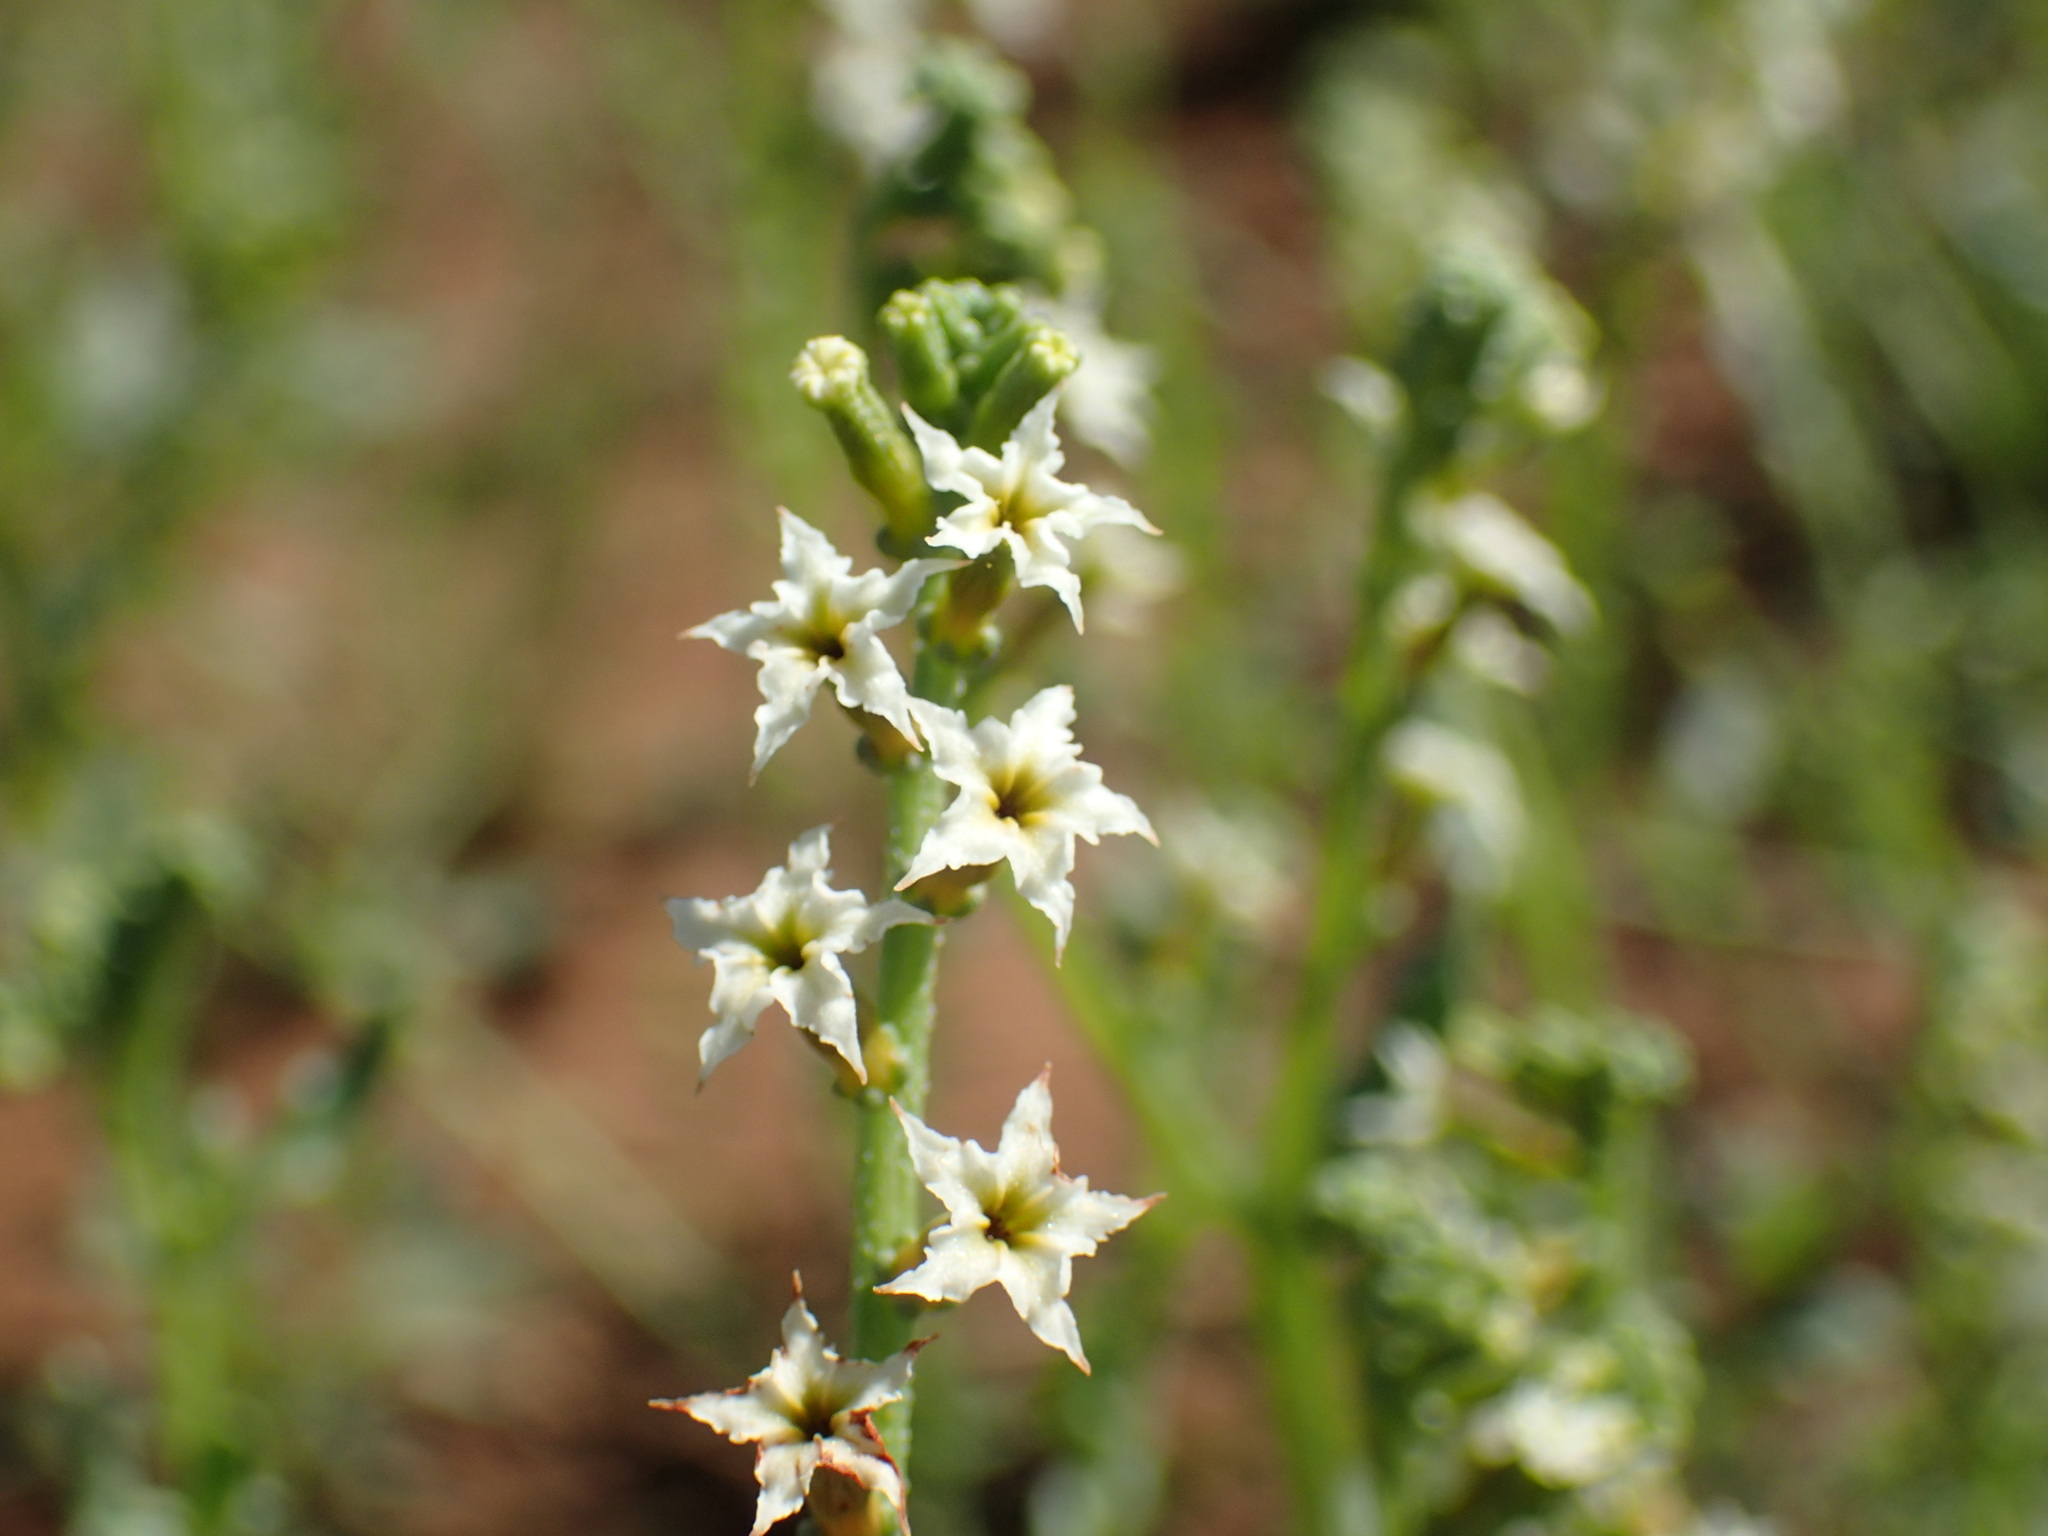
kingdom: Plantae
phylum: Tracheophyta
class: Magnoliopsida
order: Boraginales
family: Heliotropiaceae
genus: Heliotropium
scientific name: Heliotropium ciliatum
